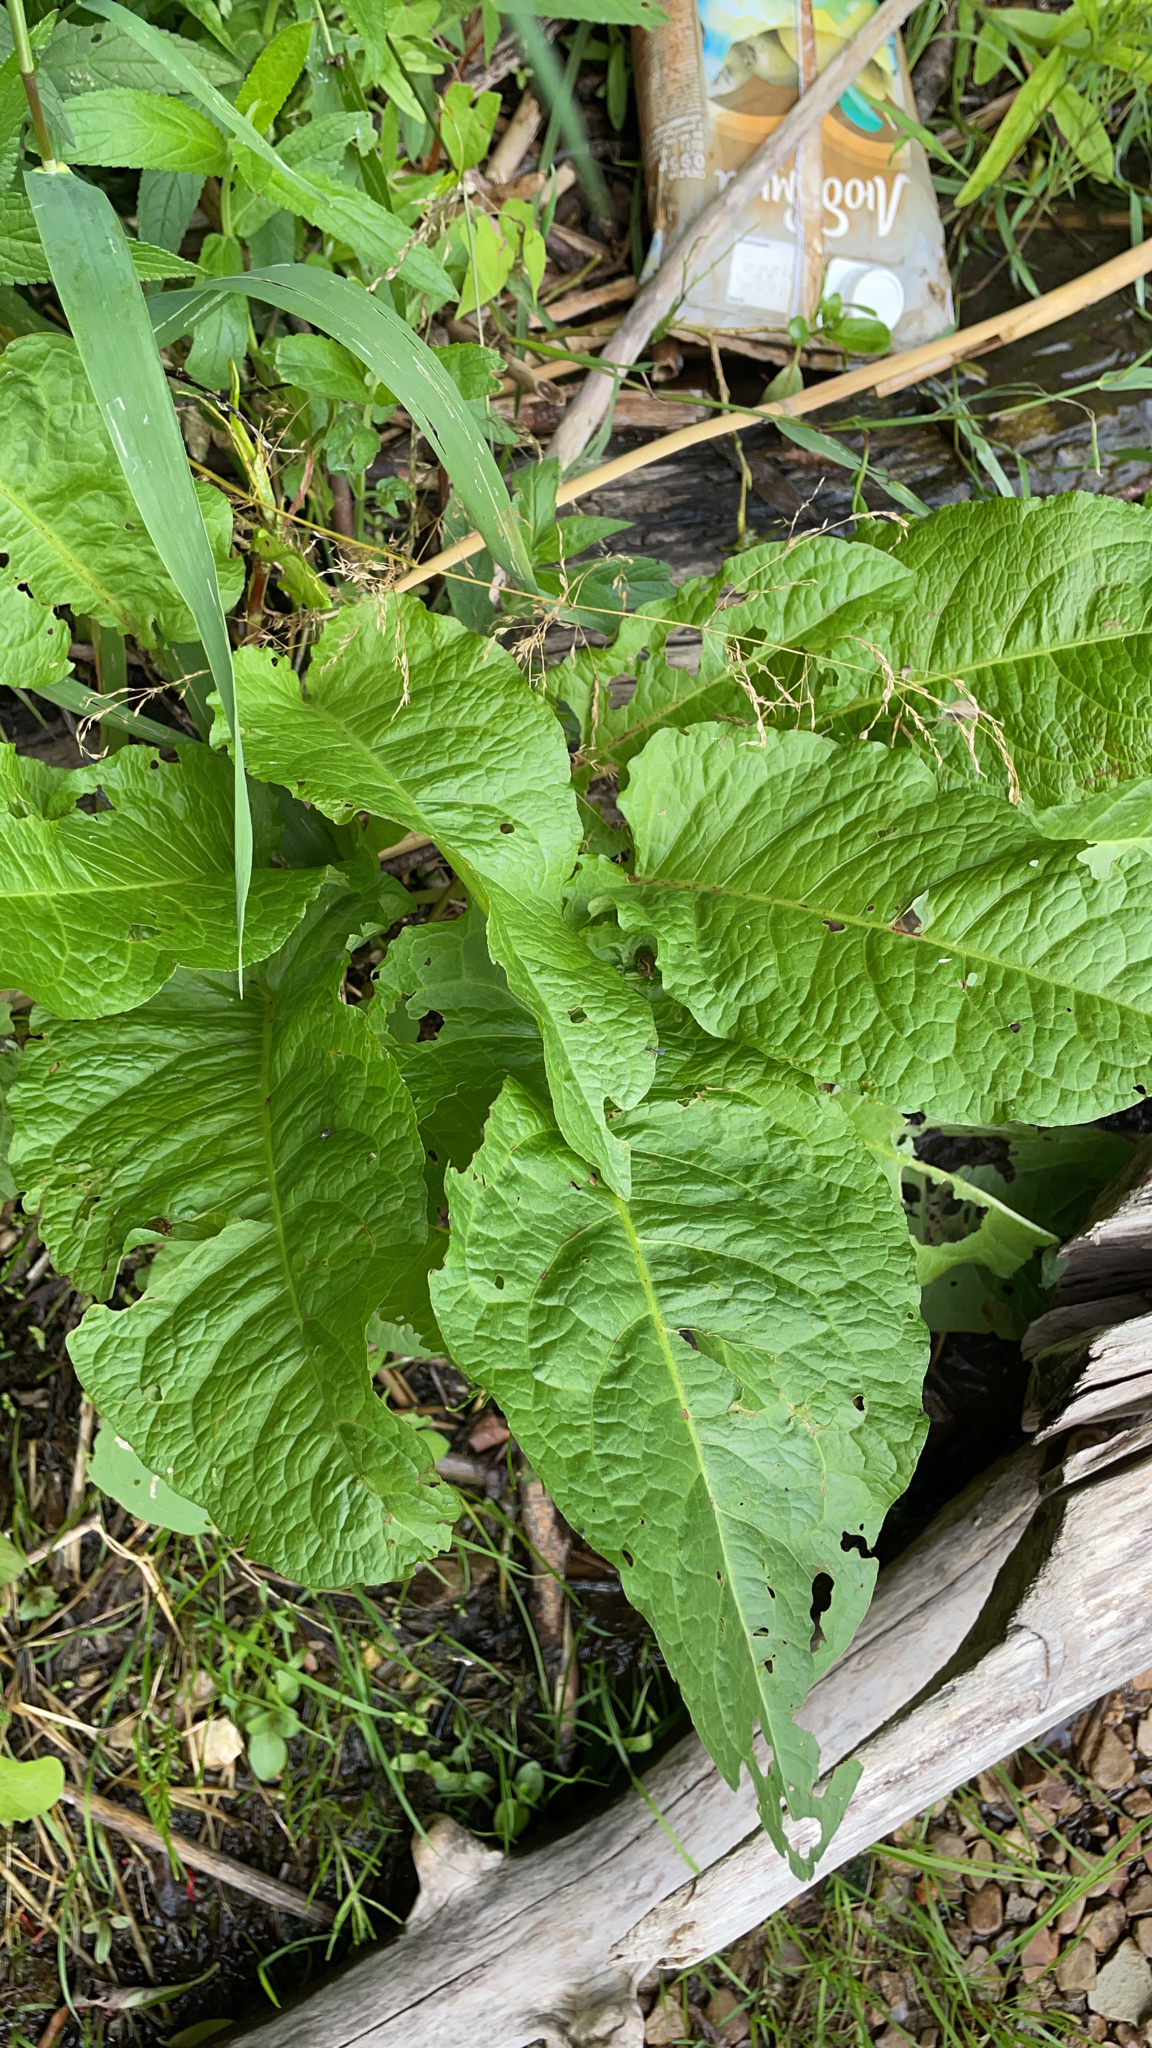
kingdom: Plantae
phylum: Tracheophyta
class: Magnoliopsida
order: Caryophyllales
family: Polygonaceae
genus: Rumex
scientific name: Rumex obtusifolius
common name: Bitter dock
